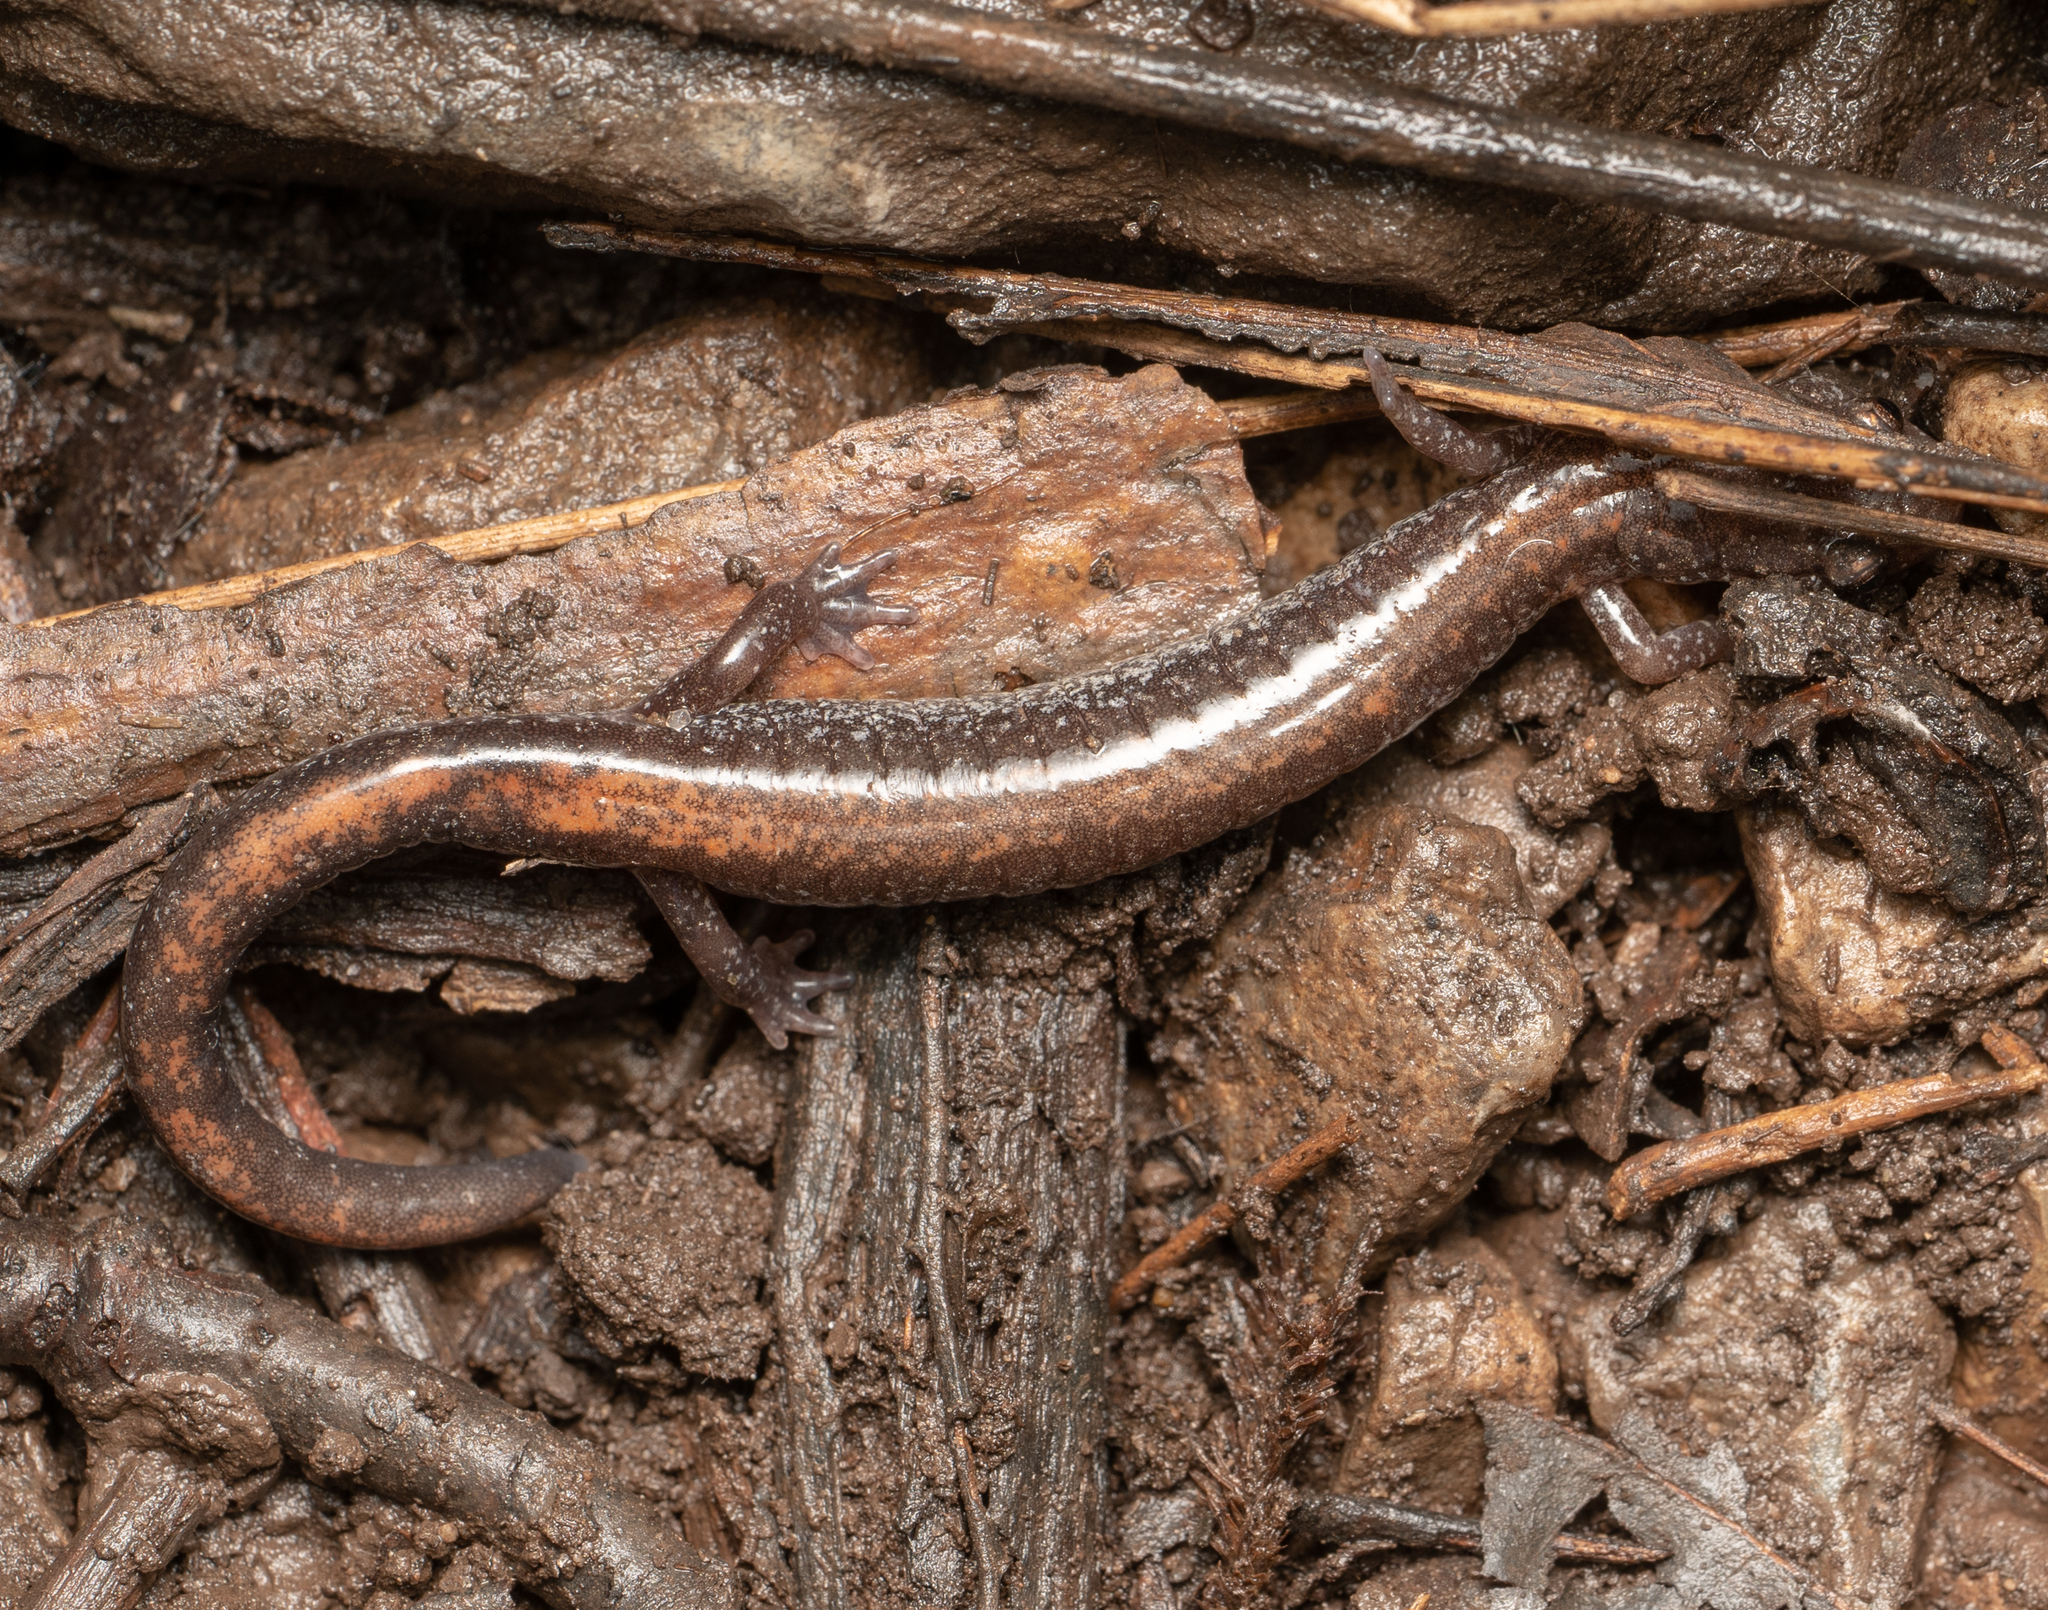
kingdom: Animalia
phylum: Chordata
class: Amphibia
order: Caudata
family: Plethodontidae
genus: Plethodon
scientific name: Plethodon cinereus
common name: Redback salamander
